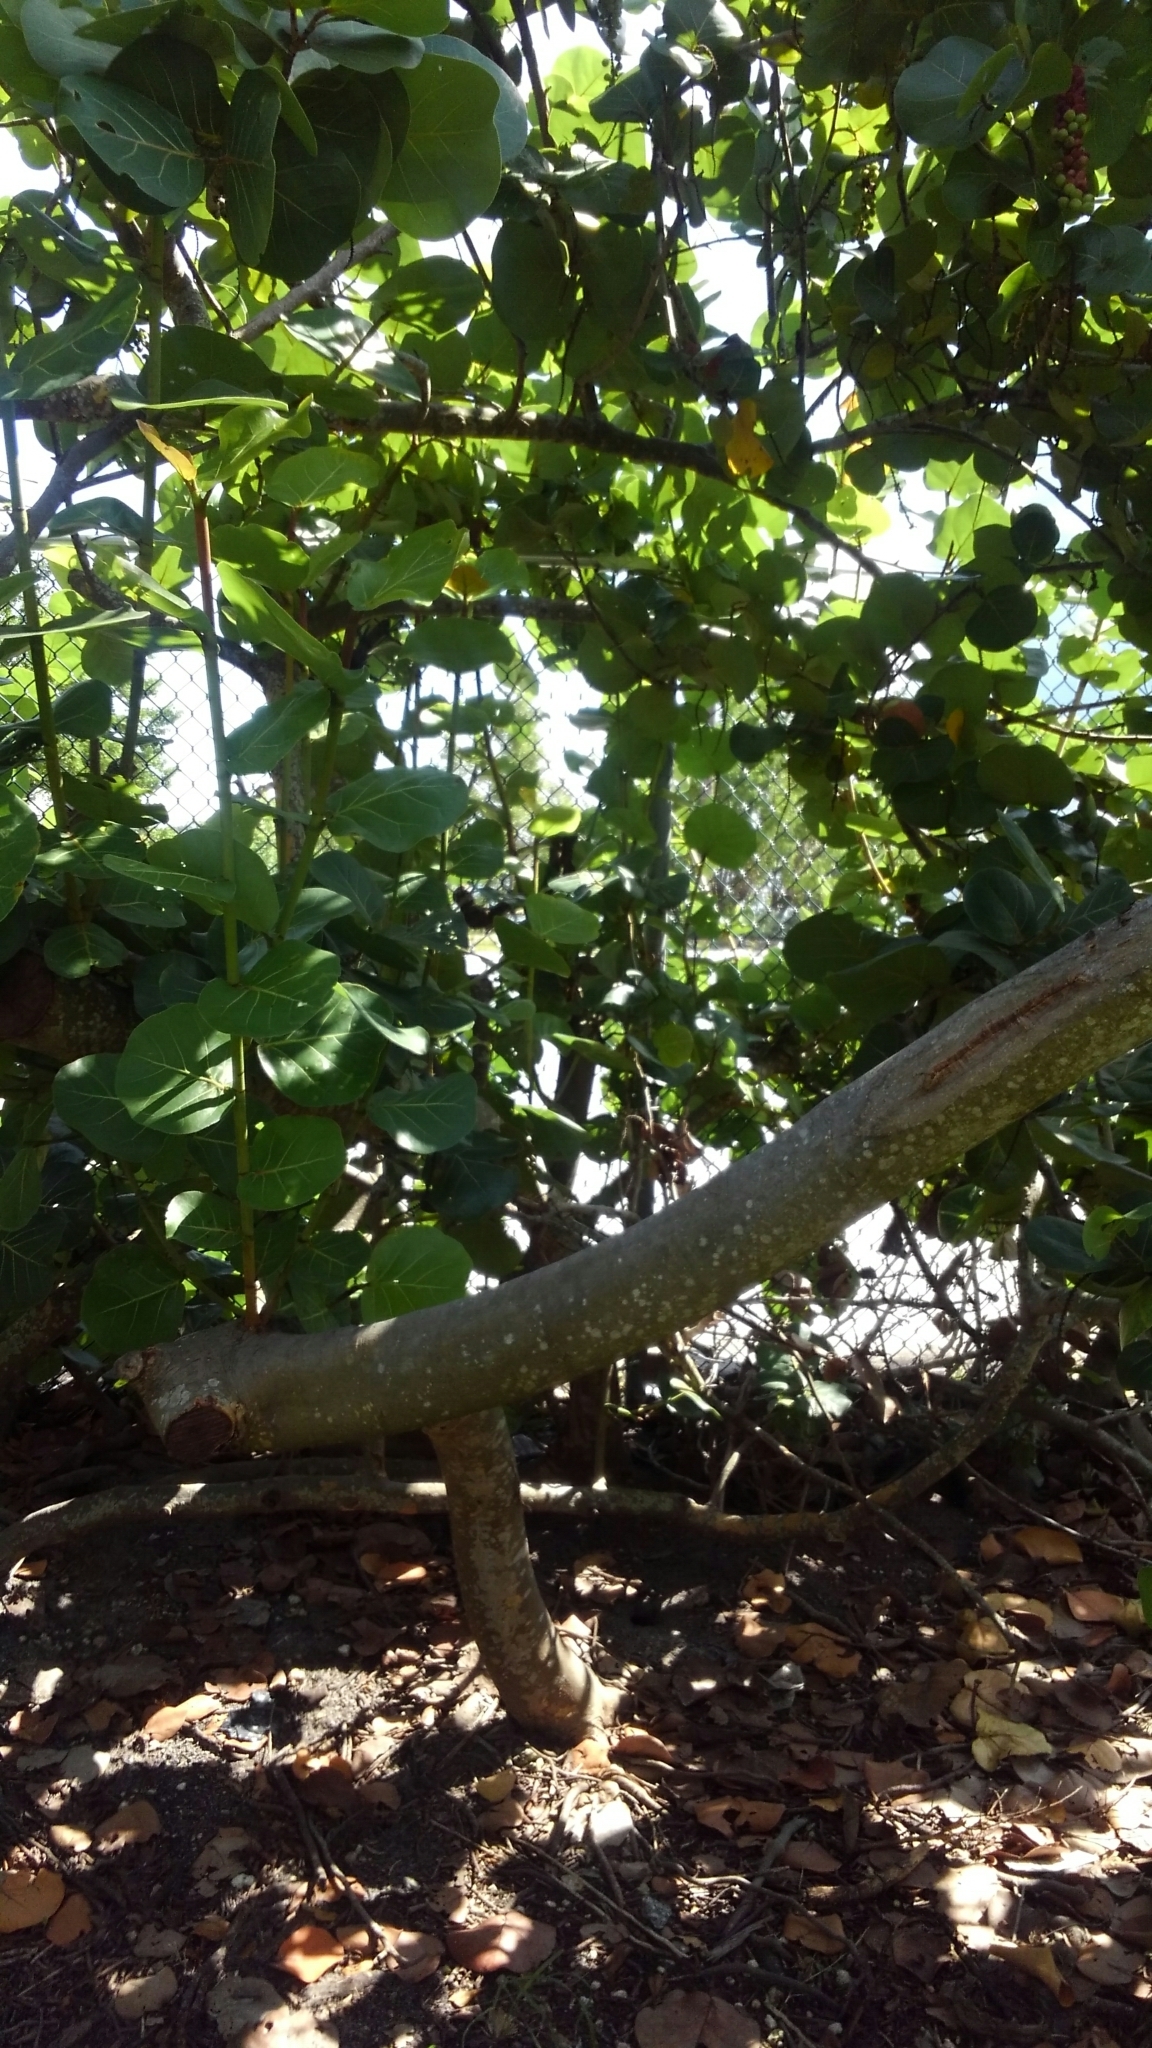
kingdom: Plantae
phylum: Tracheophyta
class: Magnoliopsida
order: Caryophyllales
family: Polygonaceae
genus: Coccoloba
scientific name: Coccoloba uvifera
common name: Seagrape
